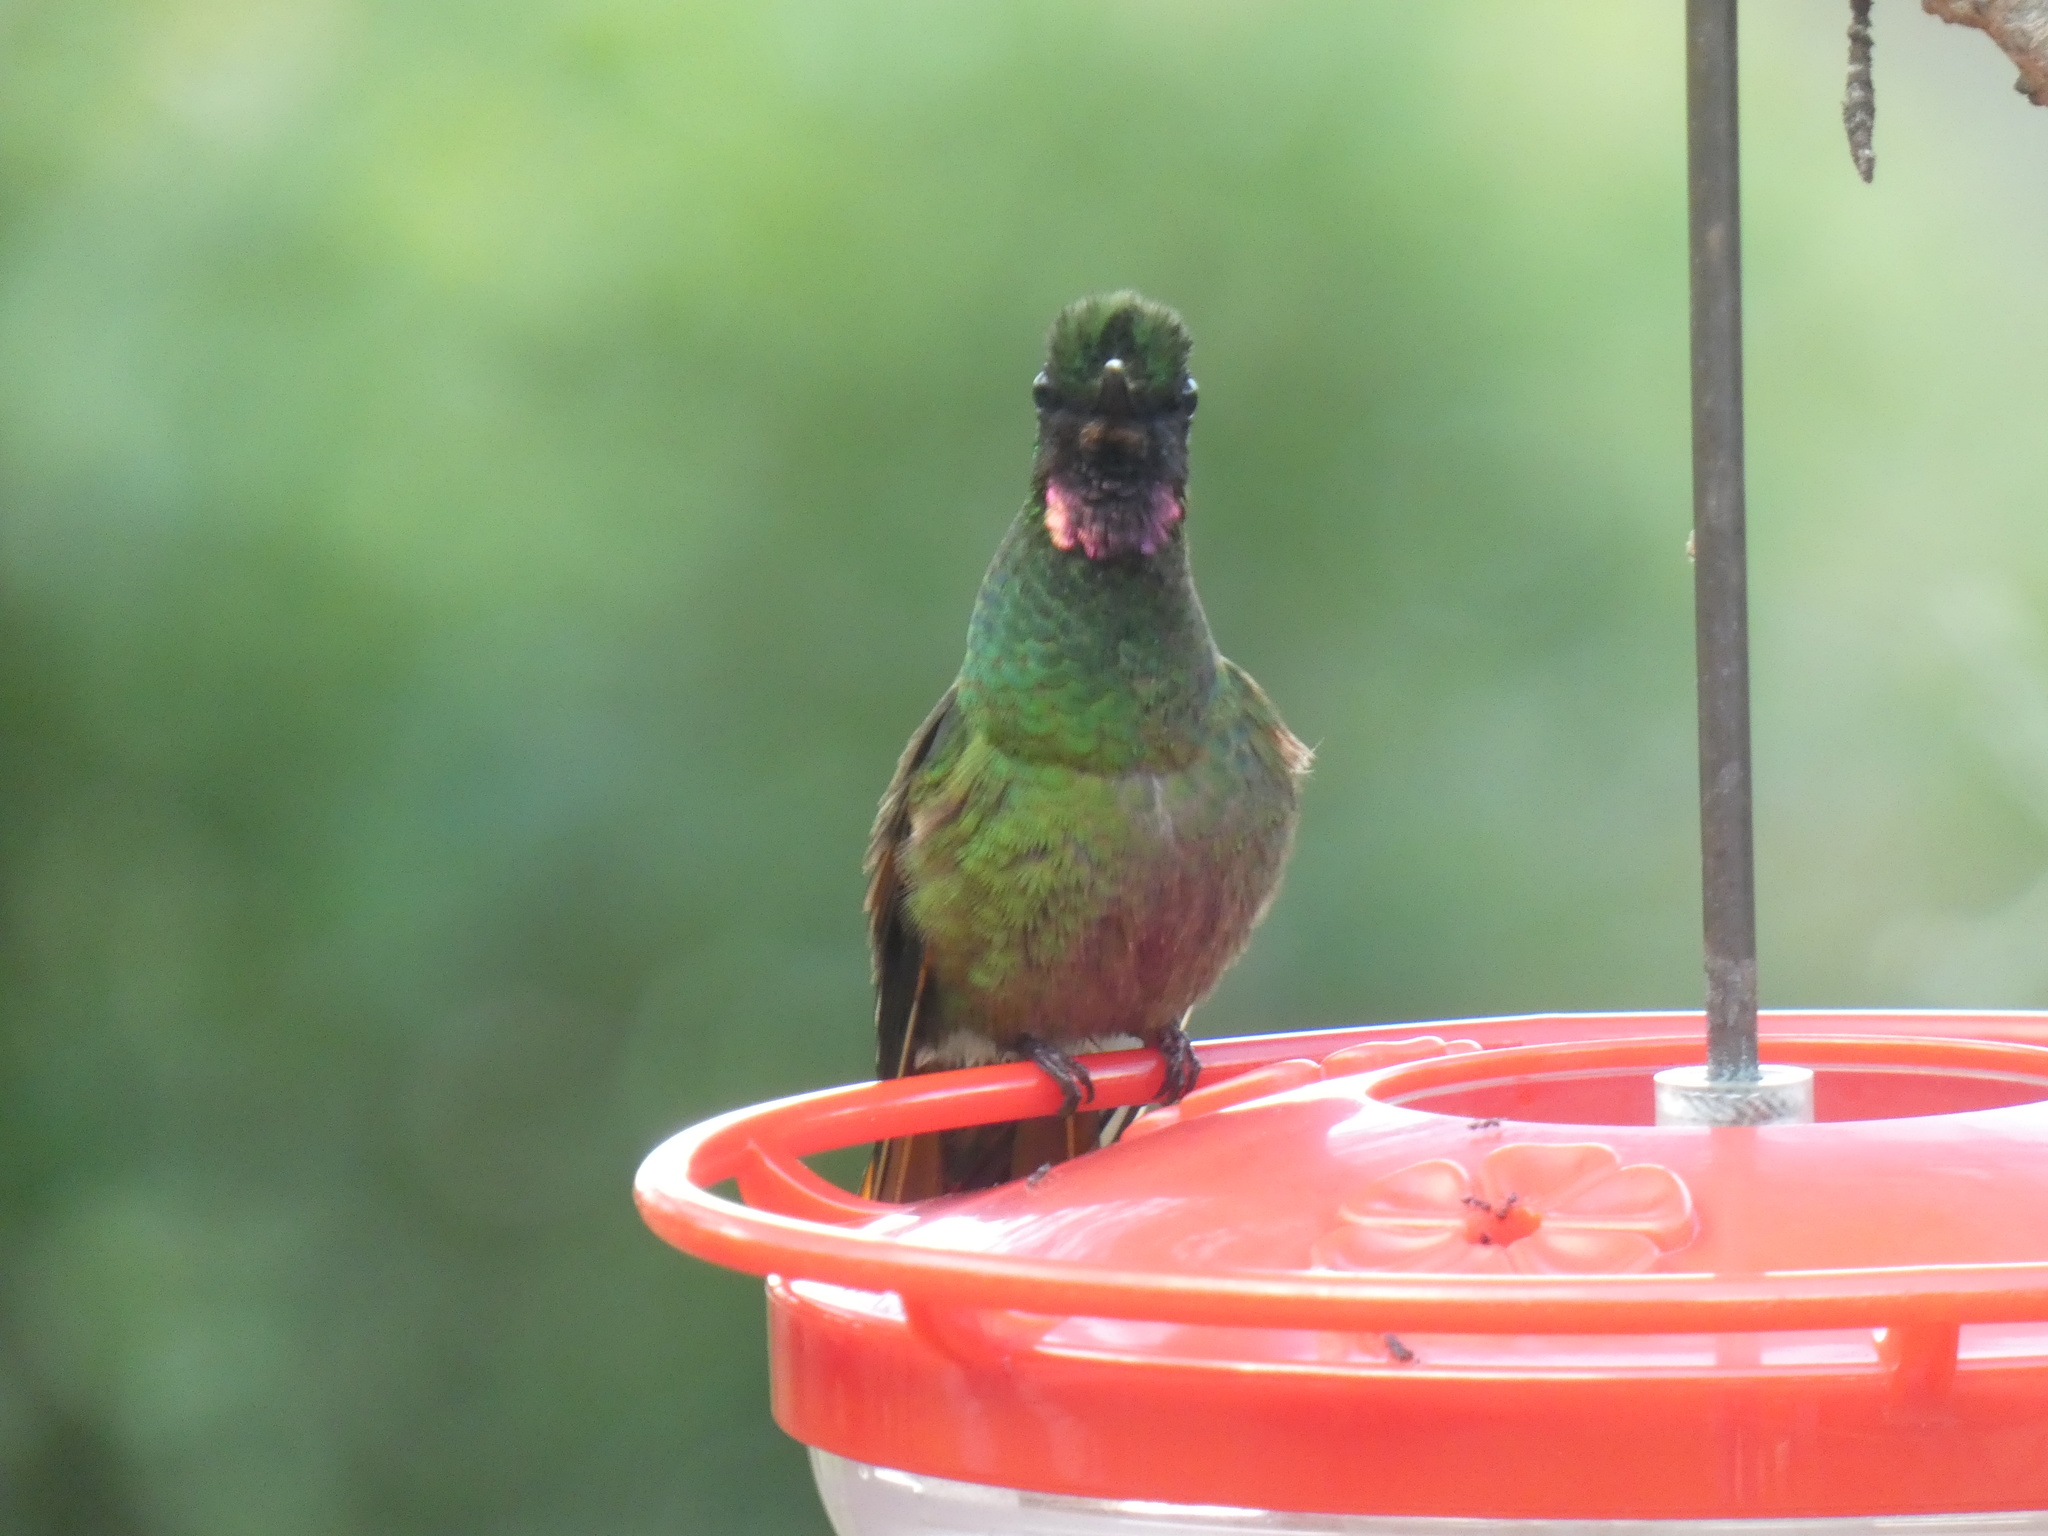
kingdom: Animalia
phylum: Chordata
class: Aves
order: Apodiformes
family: Trochilidae
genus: Clytolaema
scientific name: Clytolaema rubricauda
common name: Brazilian ruby
